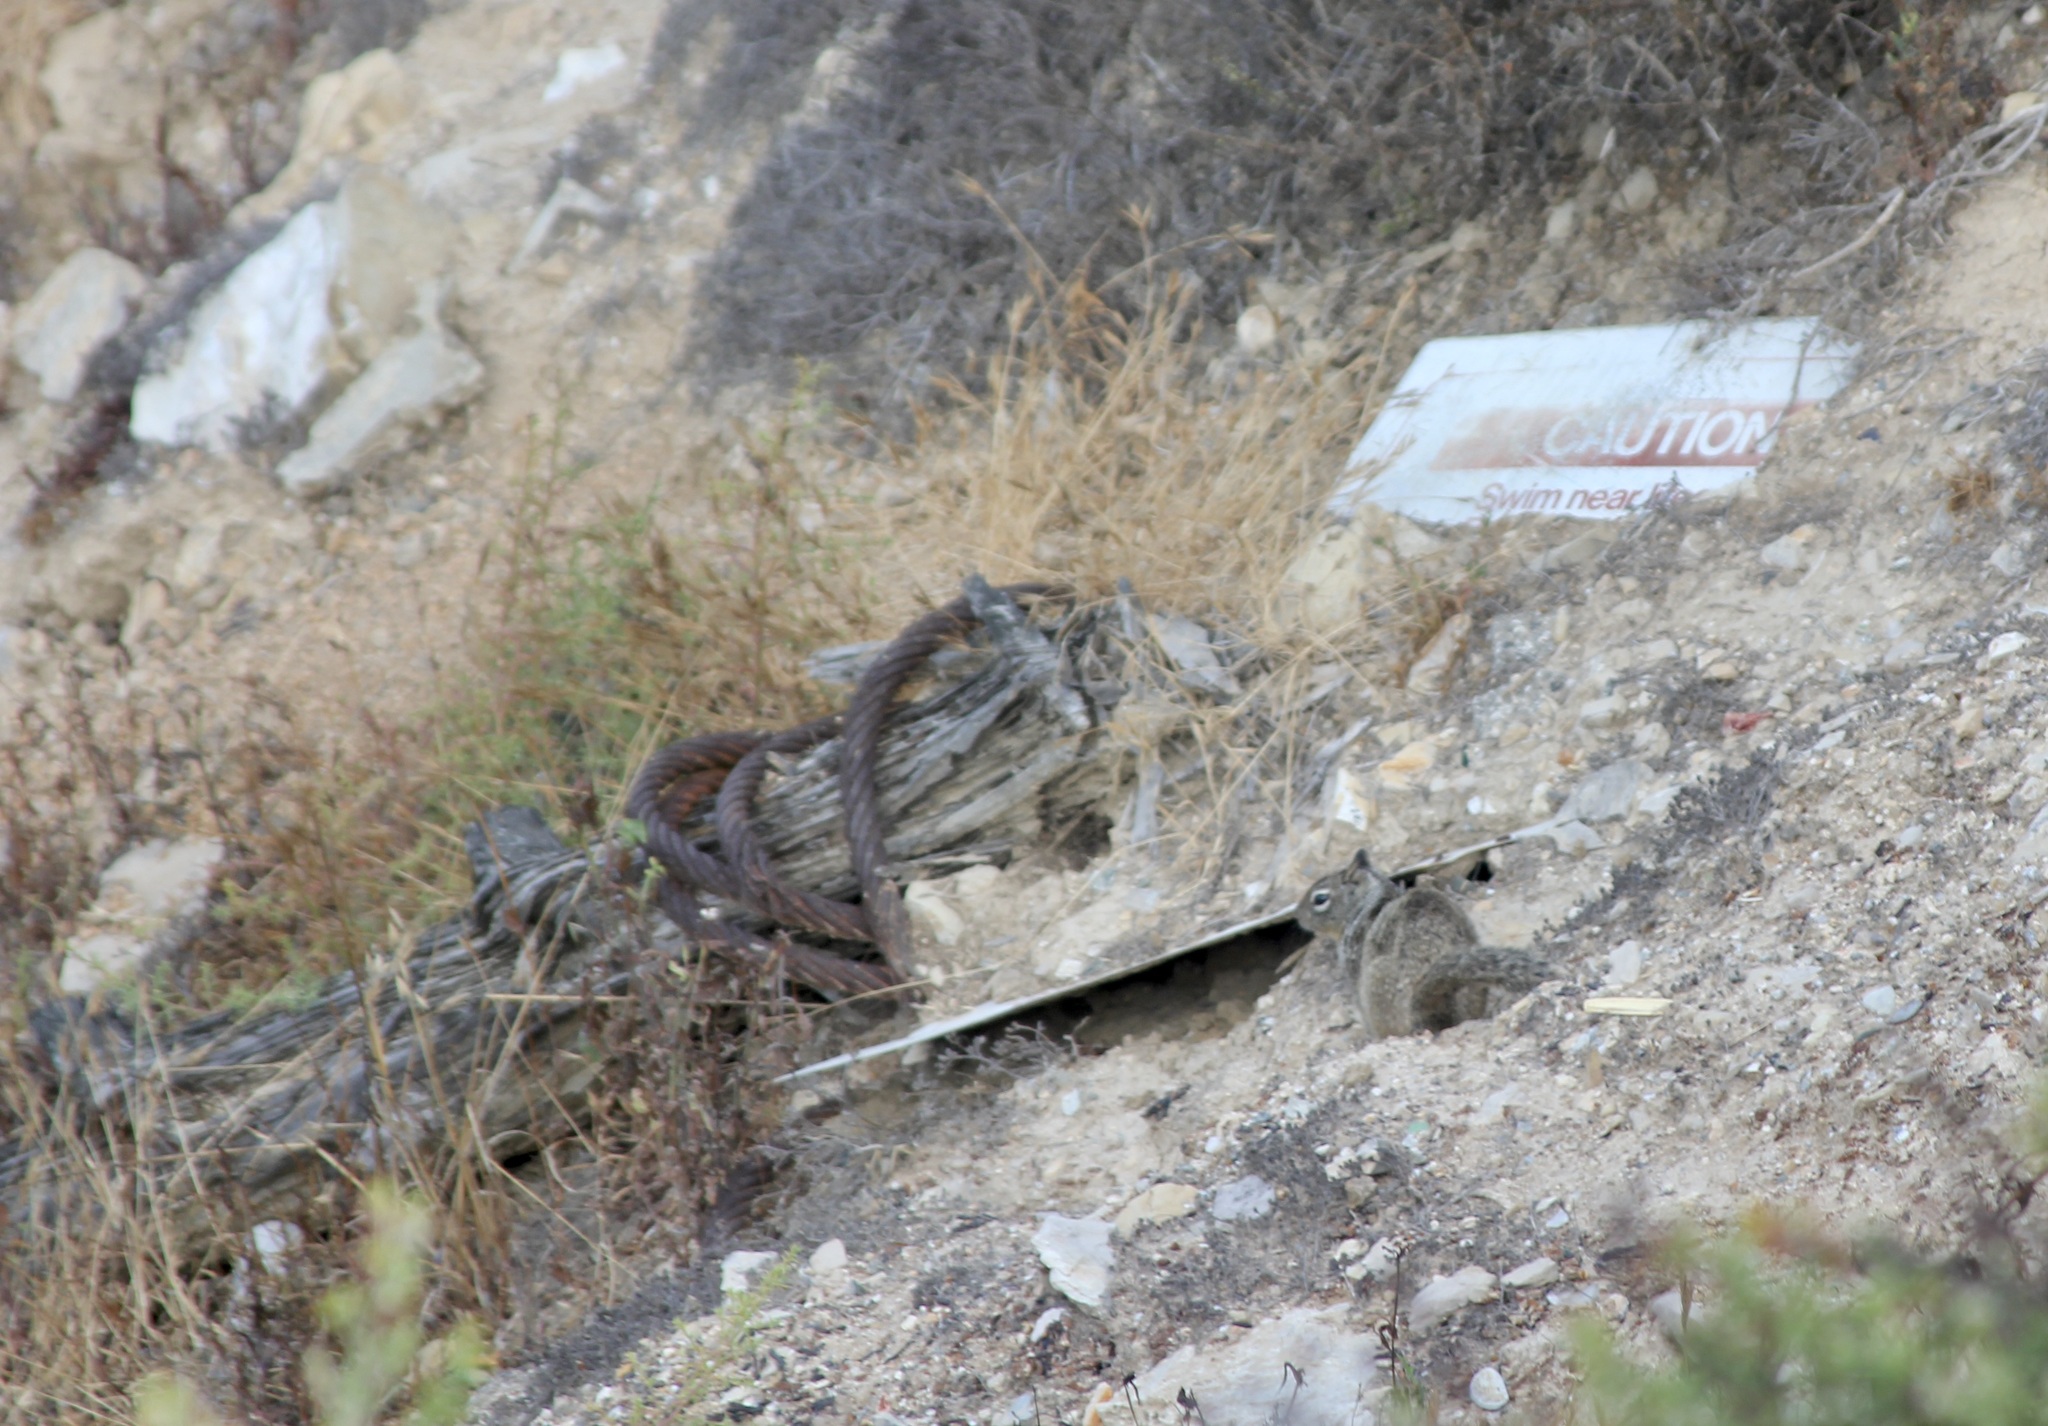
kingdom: Animalia
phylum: Chordata
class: Mammalia
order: Rodentia
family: Sciuridae
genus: Otospermophilus
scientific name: Otospermophilus beecheyi
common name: California ground squirrel
